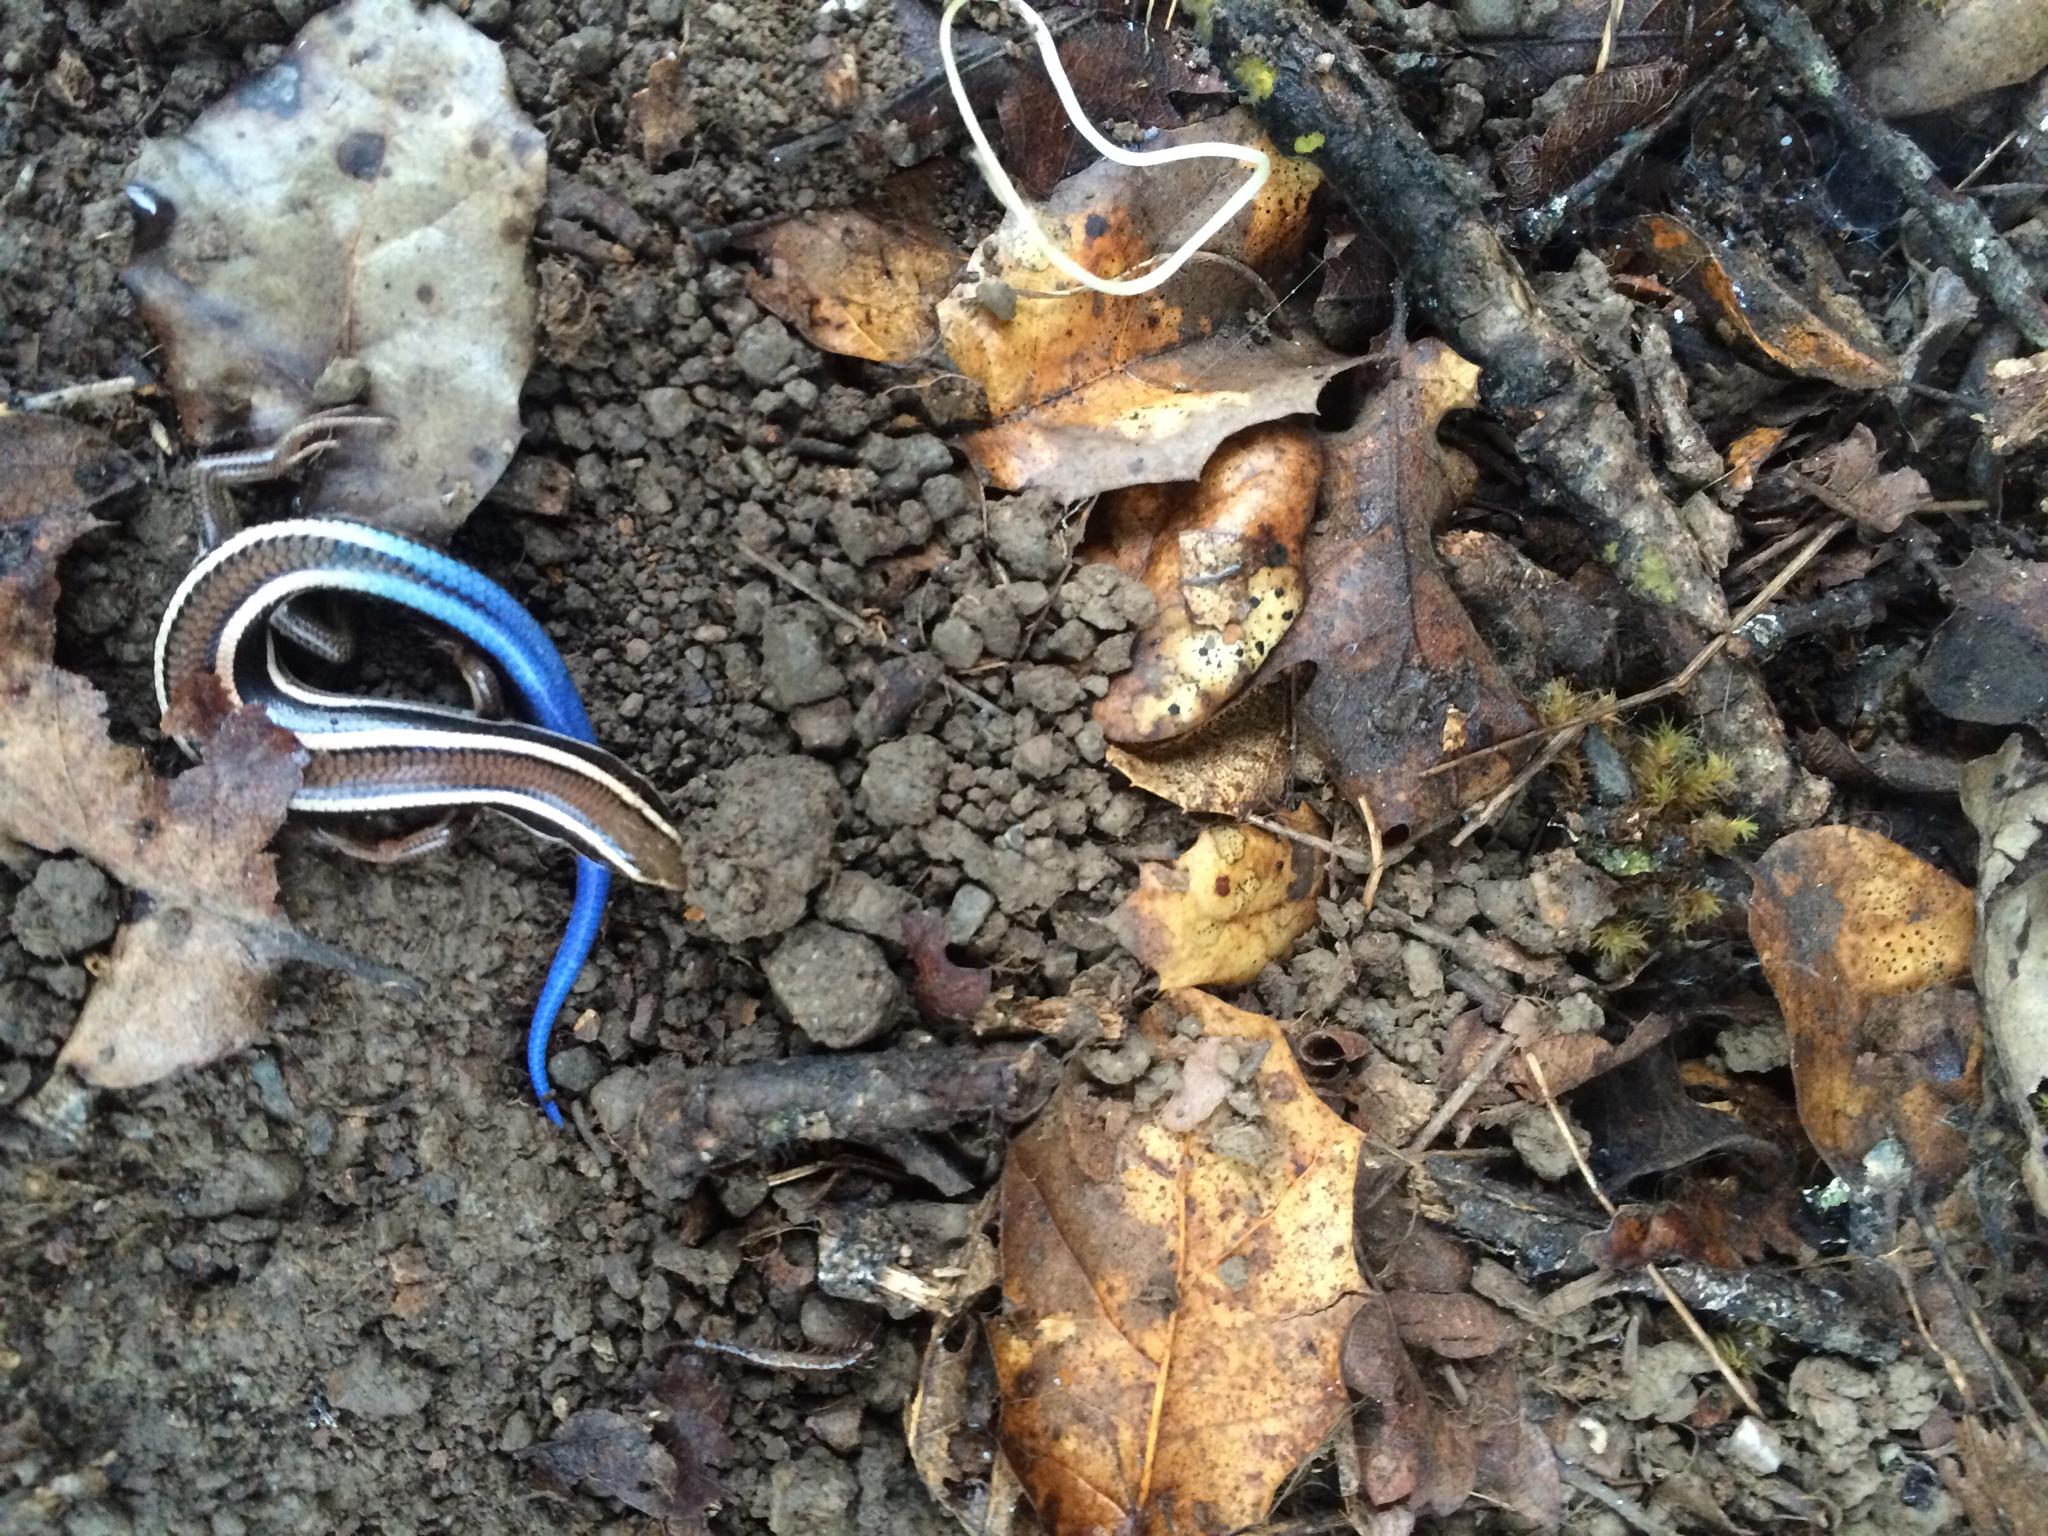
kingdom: Animalia
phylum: Chordata
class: Squamata
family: Scincidae
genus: Plestiodon
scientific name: Plestiodon skiltonianus
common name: Coronado island skink [interparietalis]
